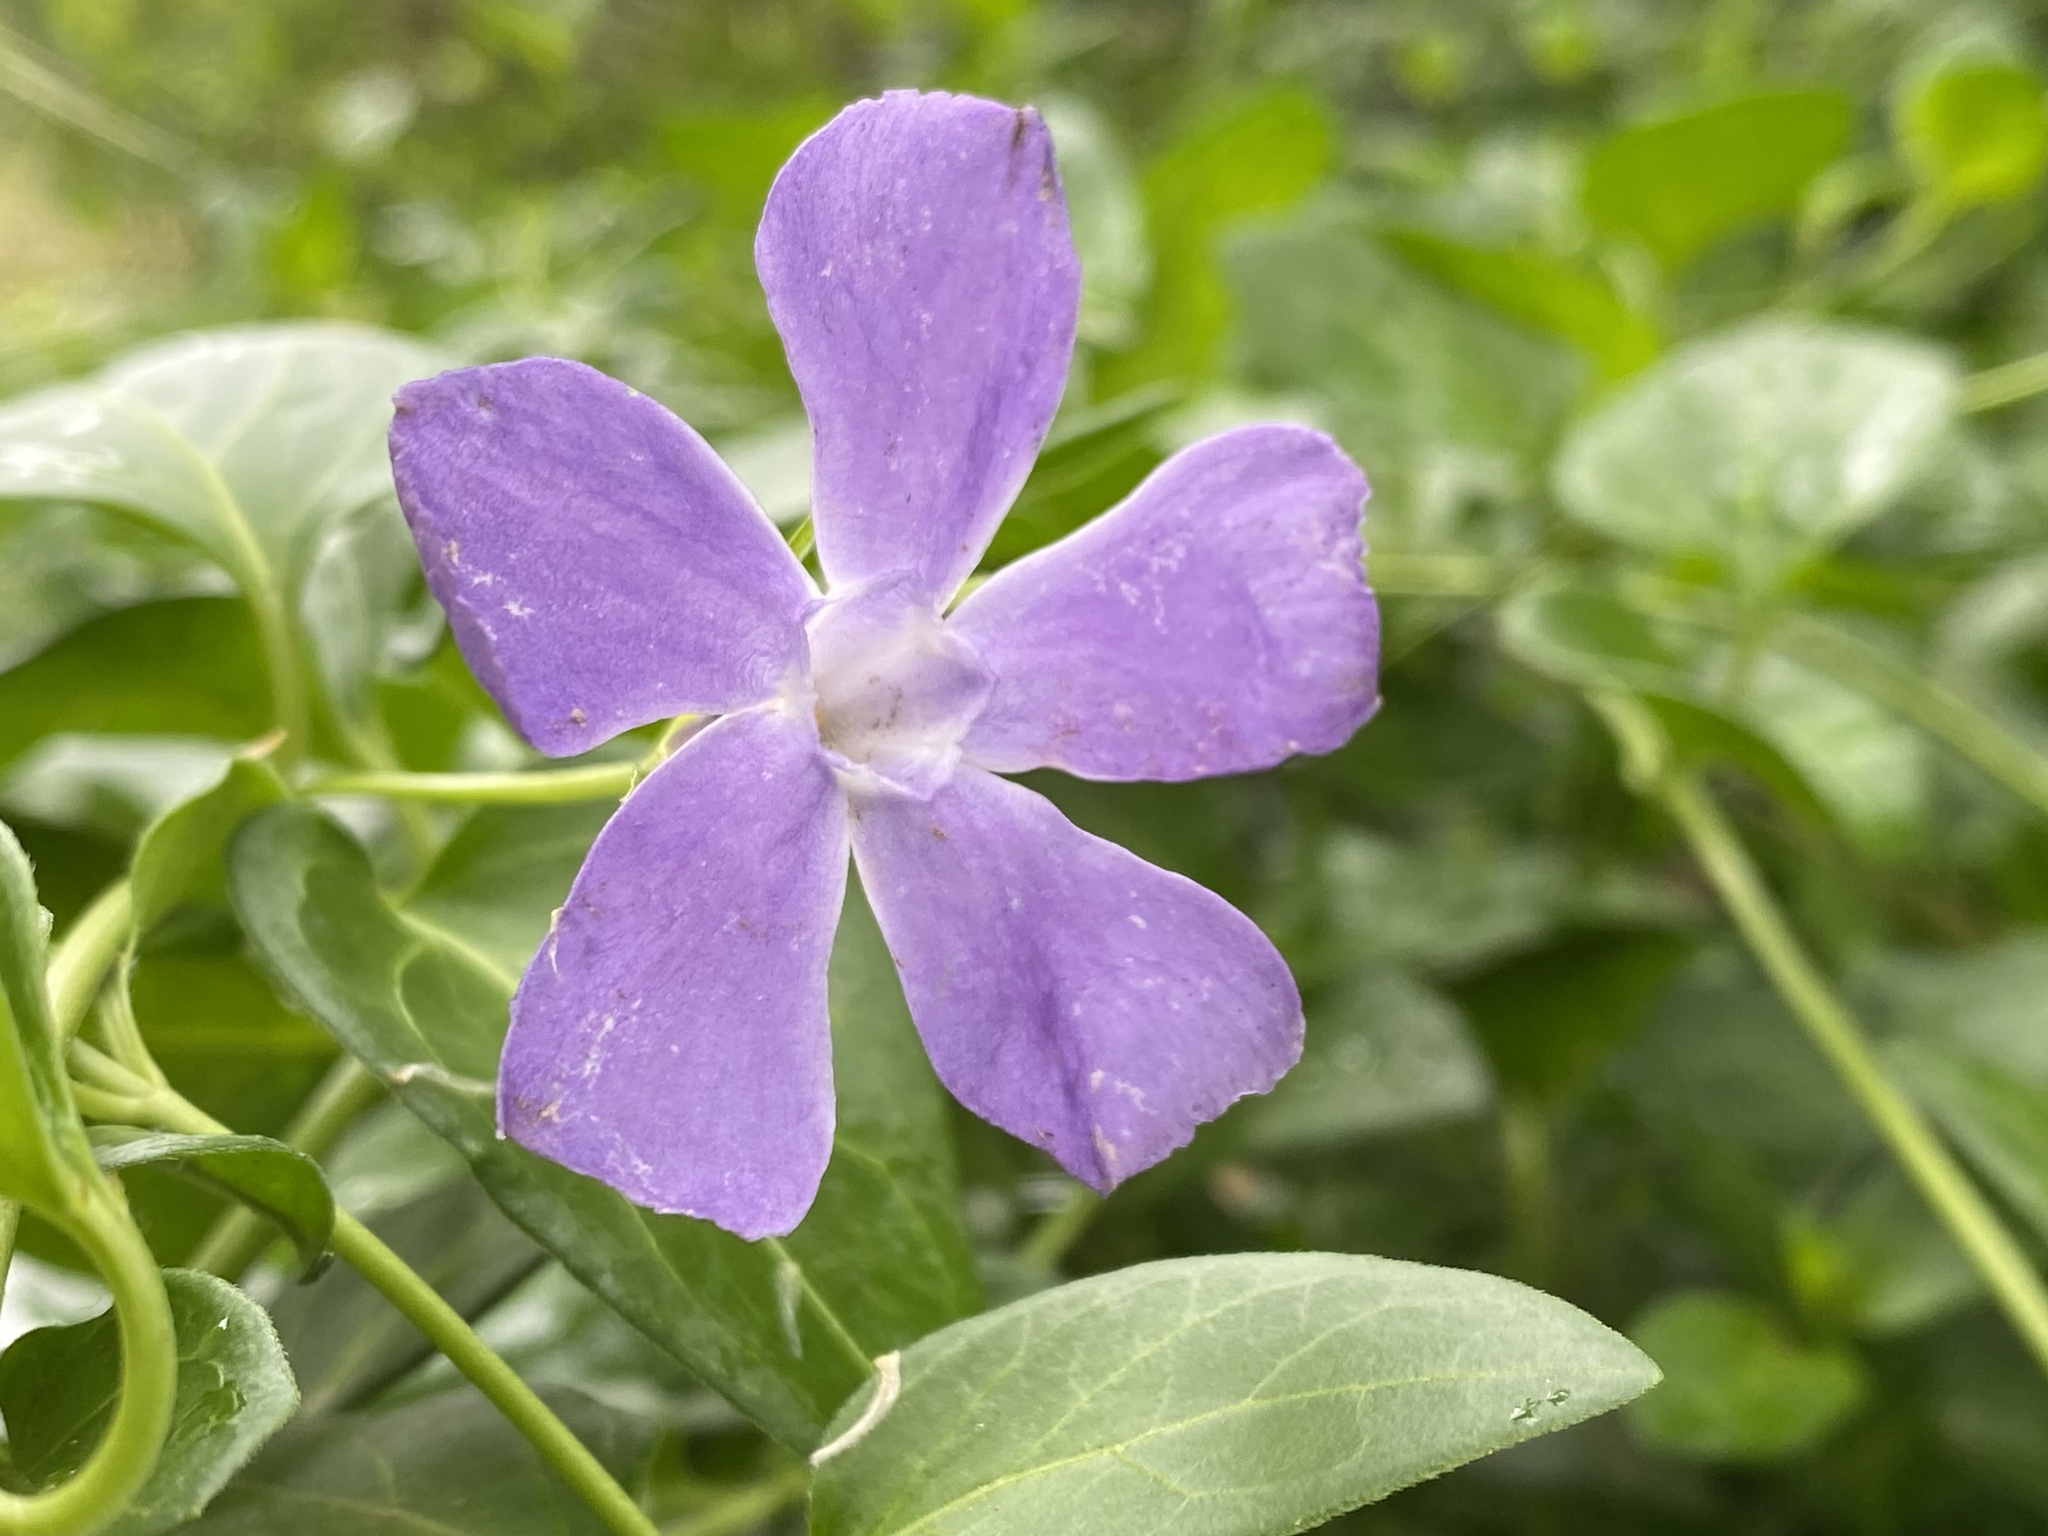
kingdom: Plantae
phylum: Tracheophyta
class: Magnoliopsida
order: Gentianales
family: Apocynaceae
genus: Vinca
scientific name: Vinca major
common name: Greater periwinkle
